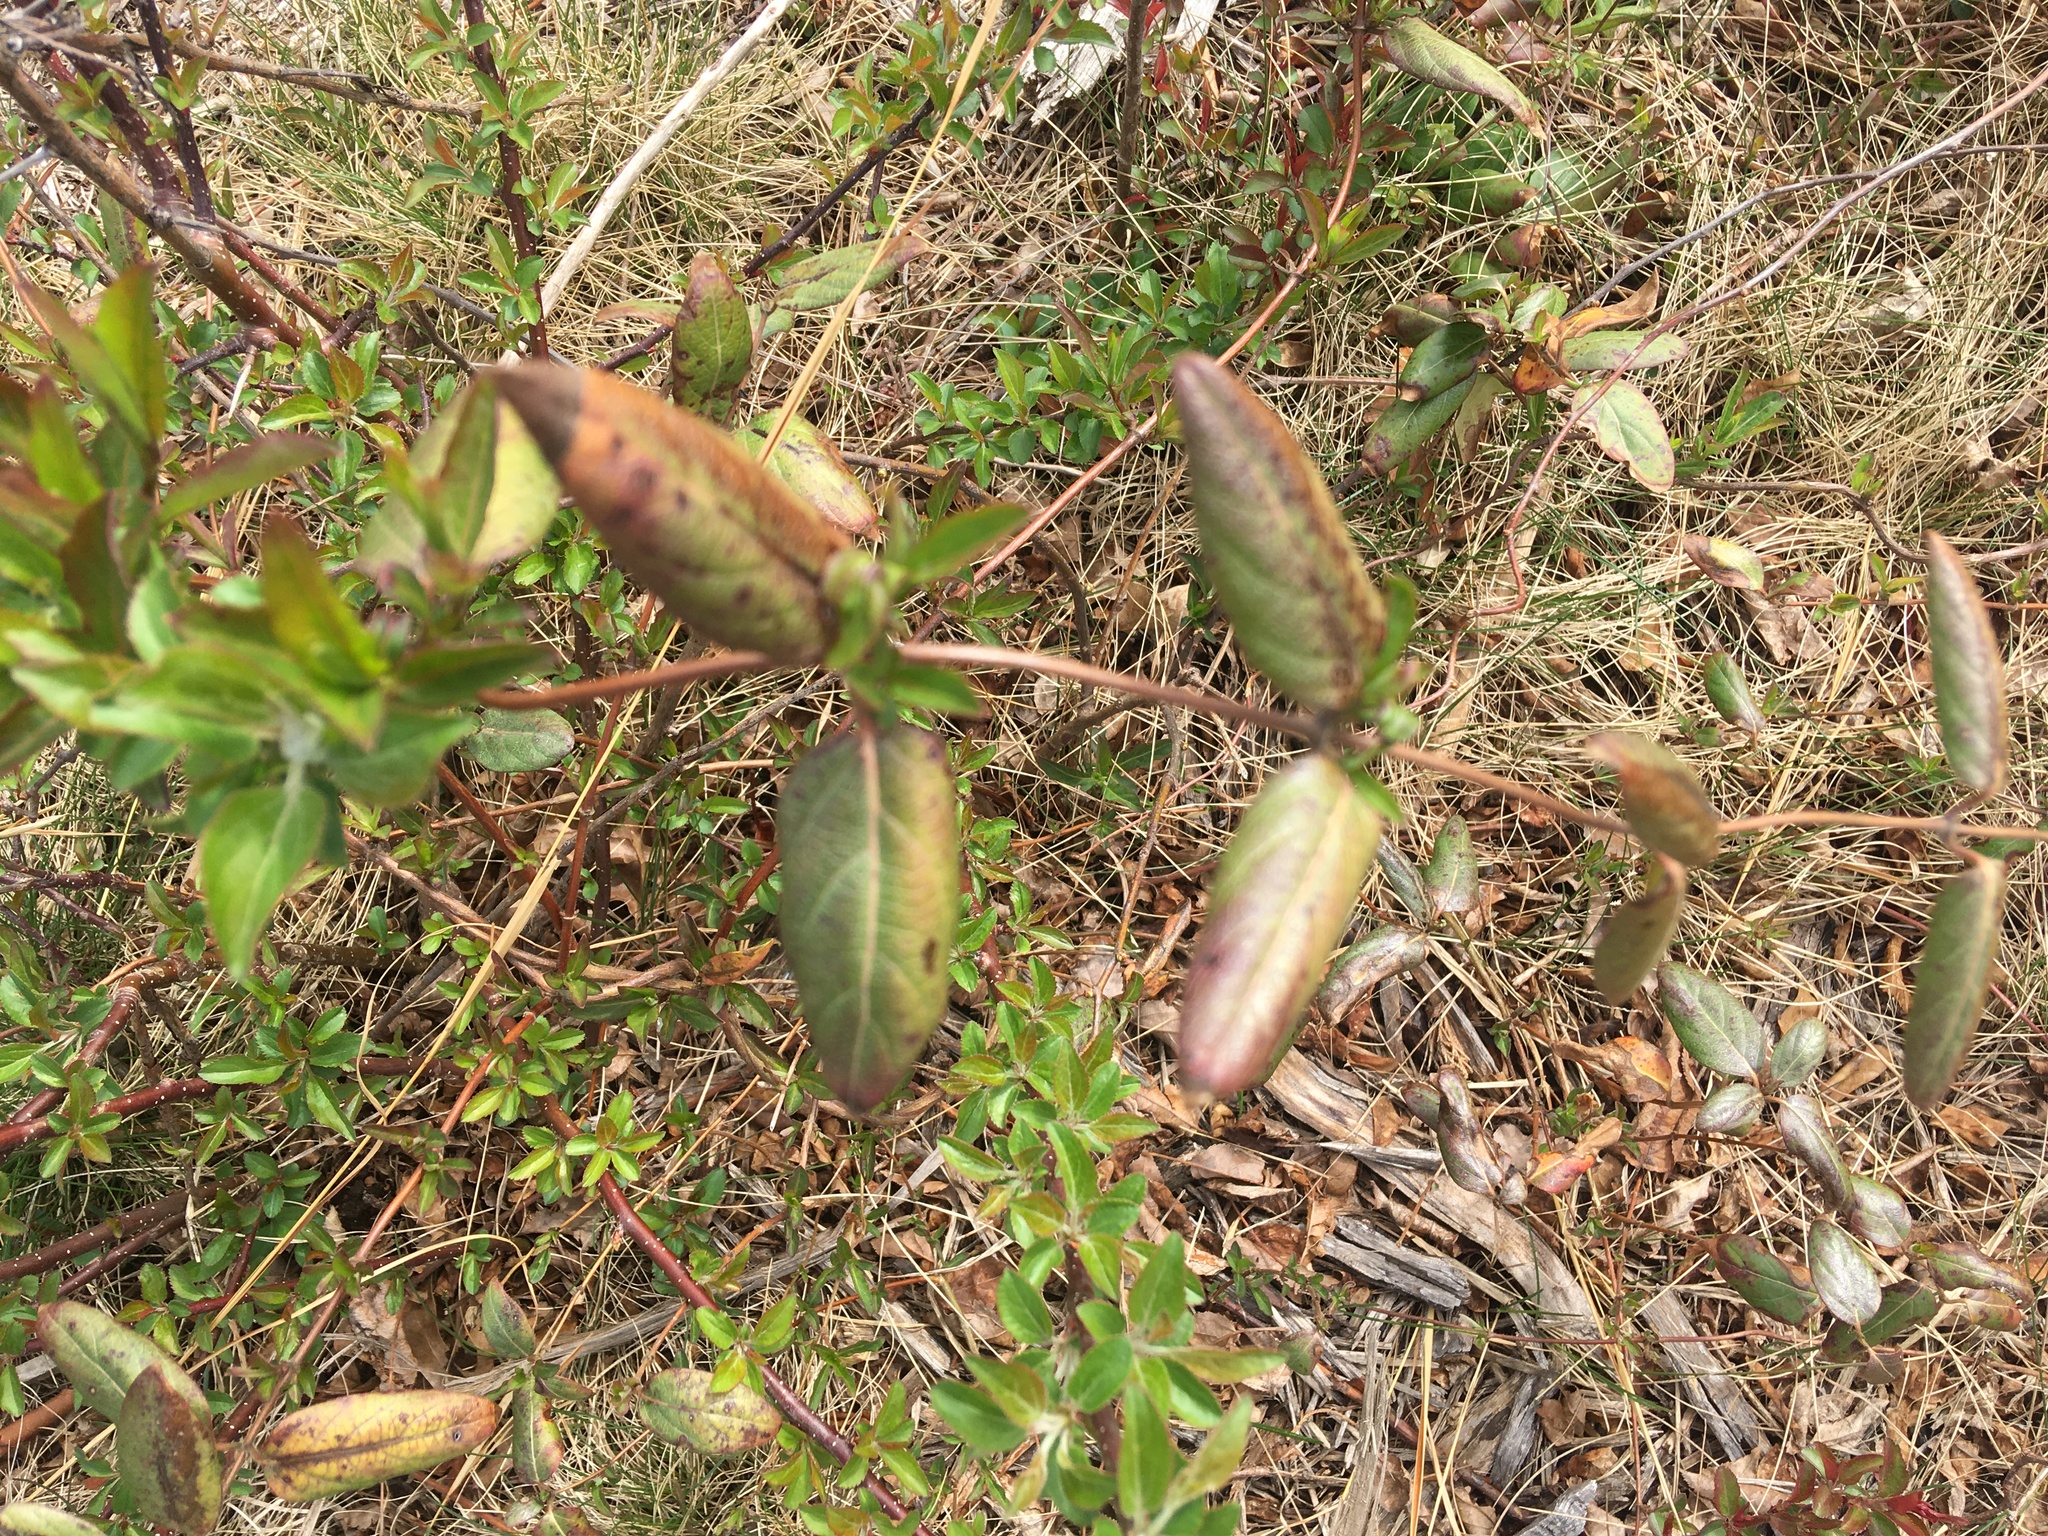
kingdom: Plantae
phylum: Tracheophyta
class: Magnoliopsida
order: Dipsacales
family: Caprifoliaceae
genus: Lonicera
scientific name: Lonicera japonica
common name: Japanese honeysuckle
